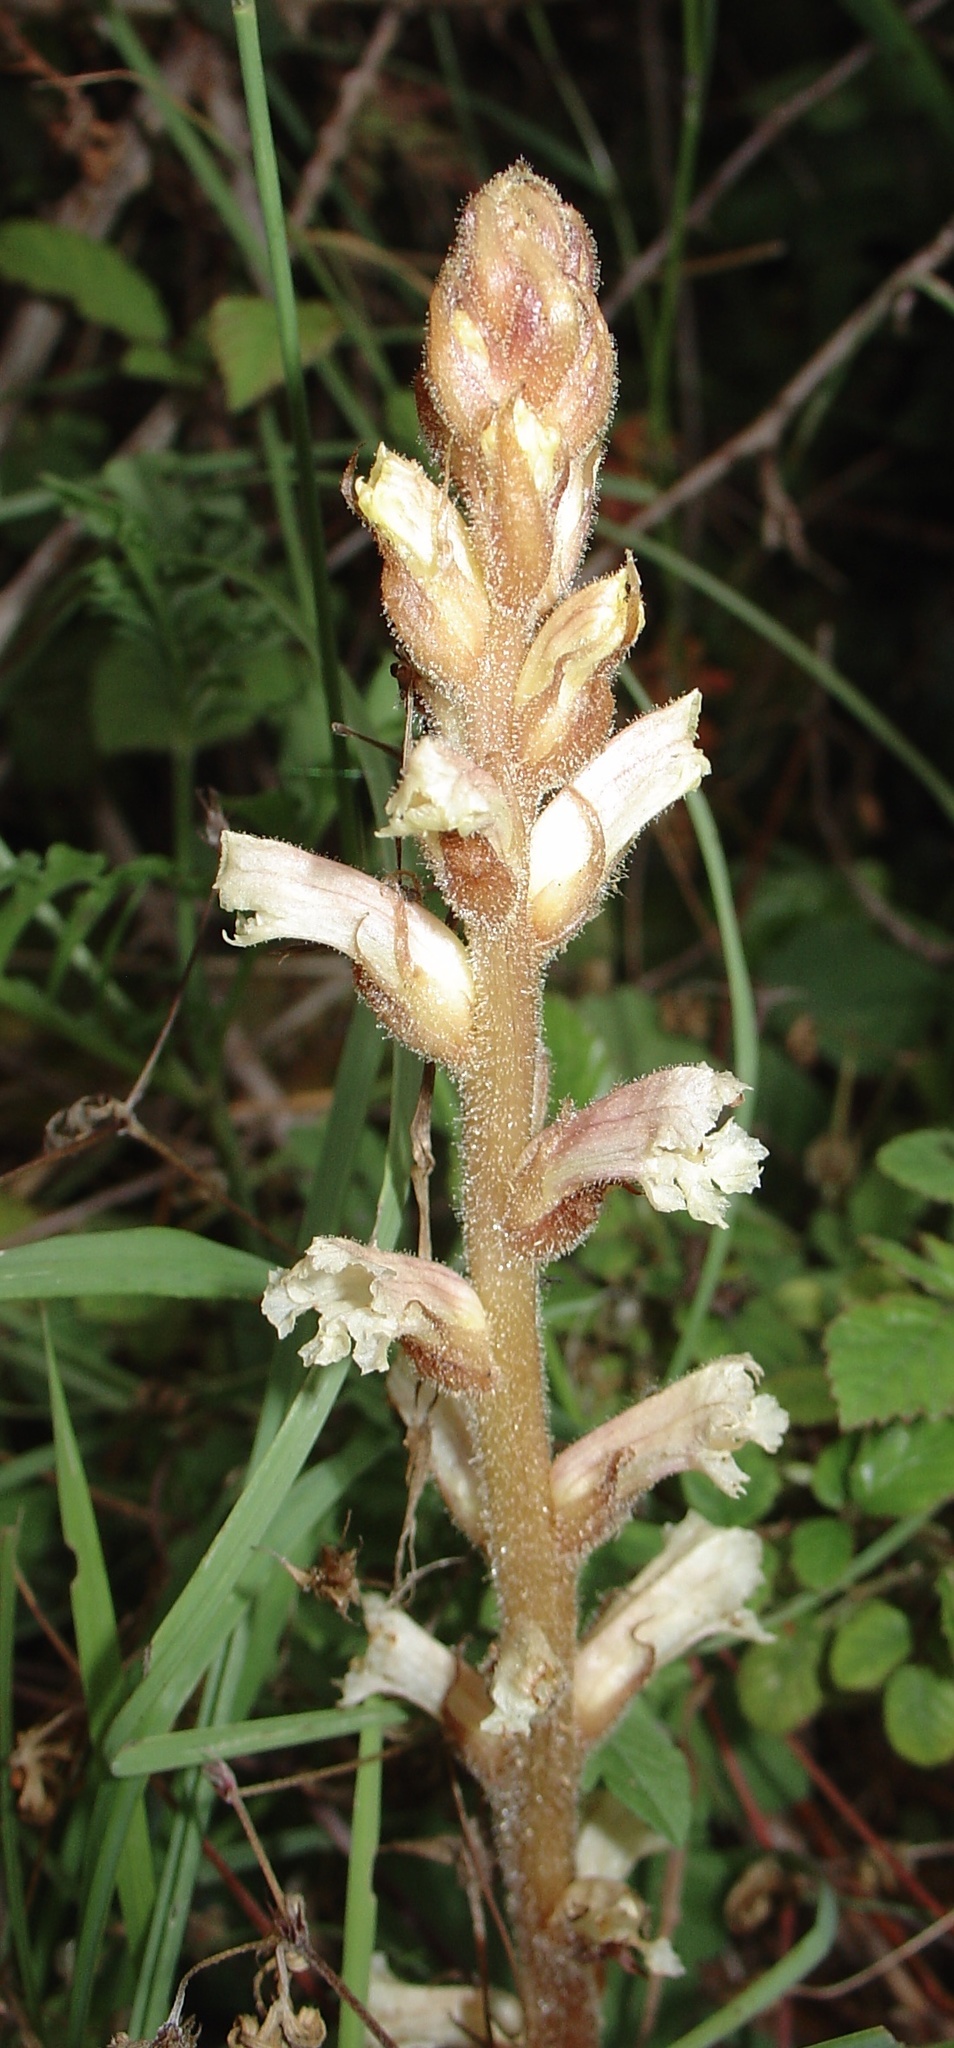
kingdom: Plantae
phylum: Tracheophyta
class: Magnoliopsida
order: Lamiales
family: Orobanchaceae
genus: Orobanche
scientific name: Orobanche hederae
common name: Ivy broomrape
